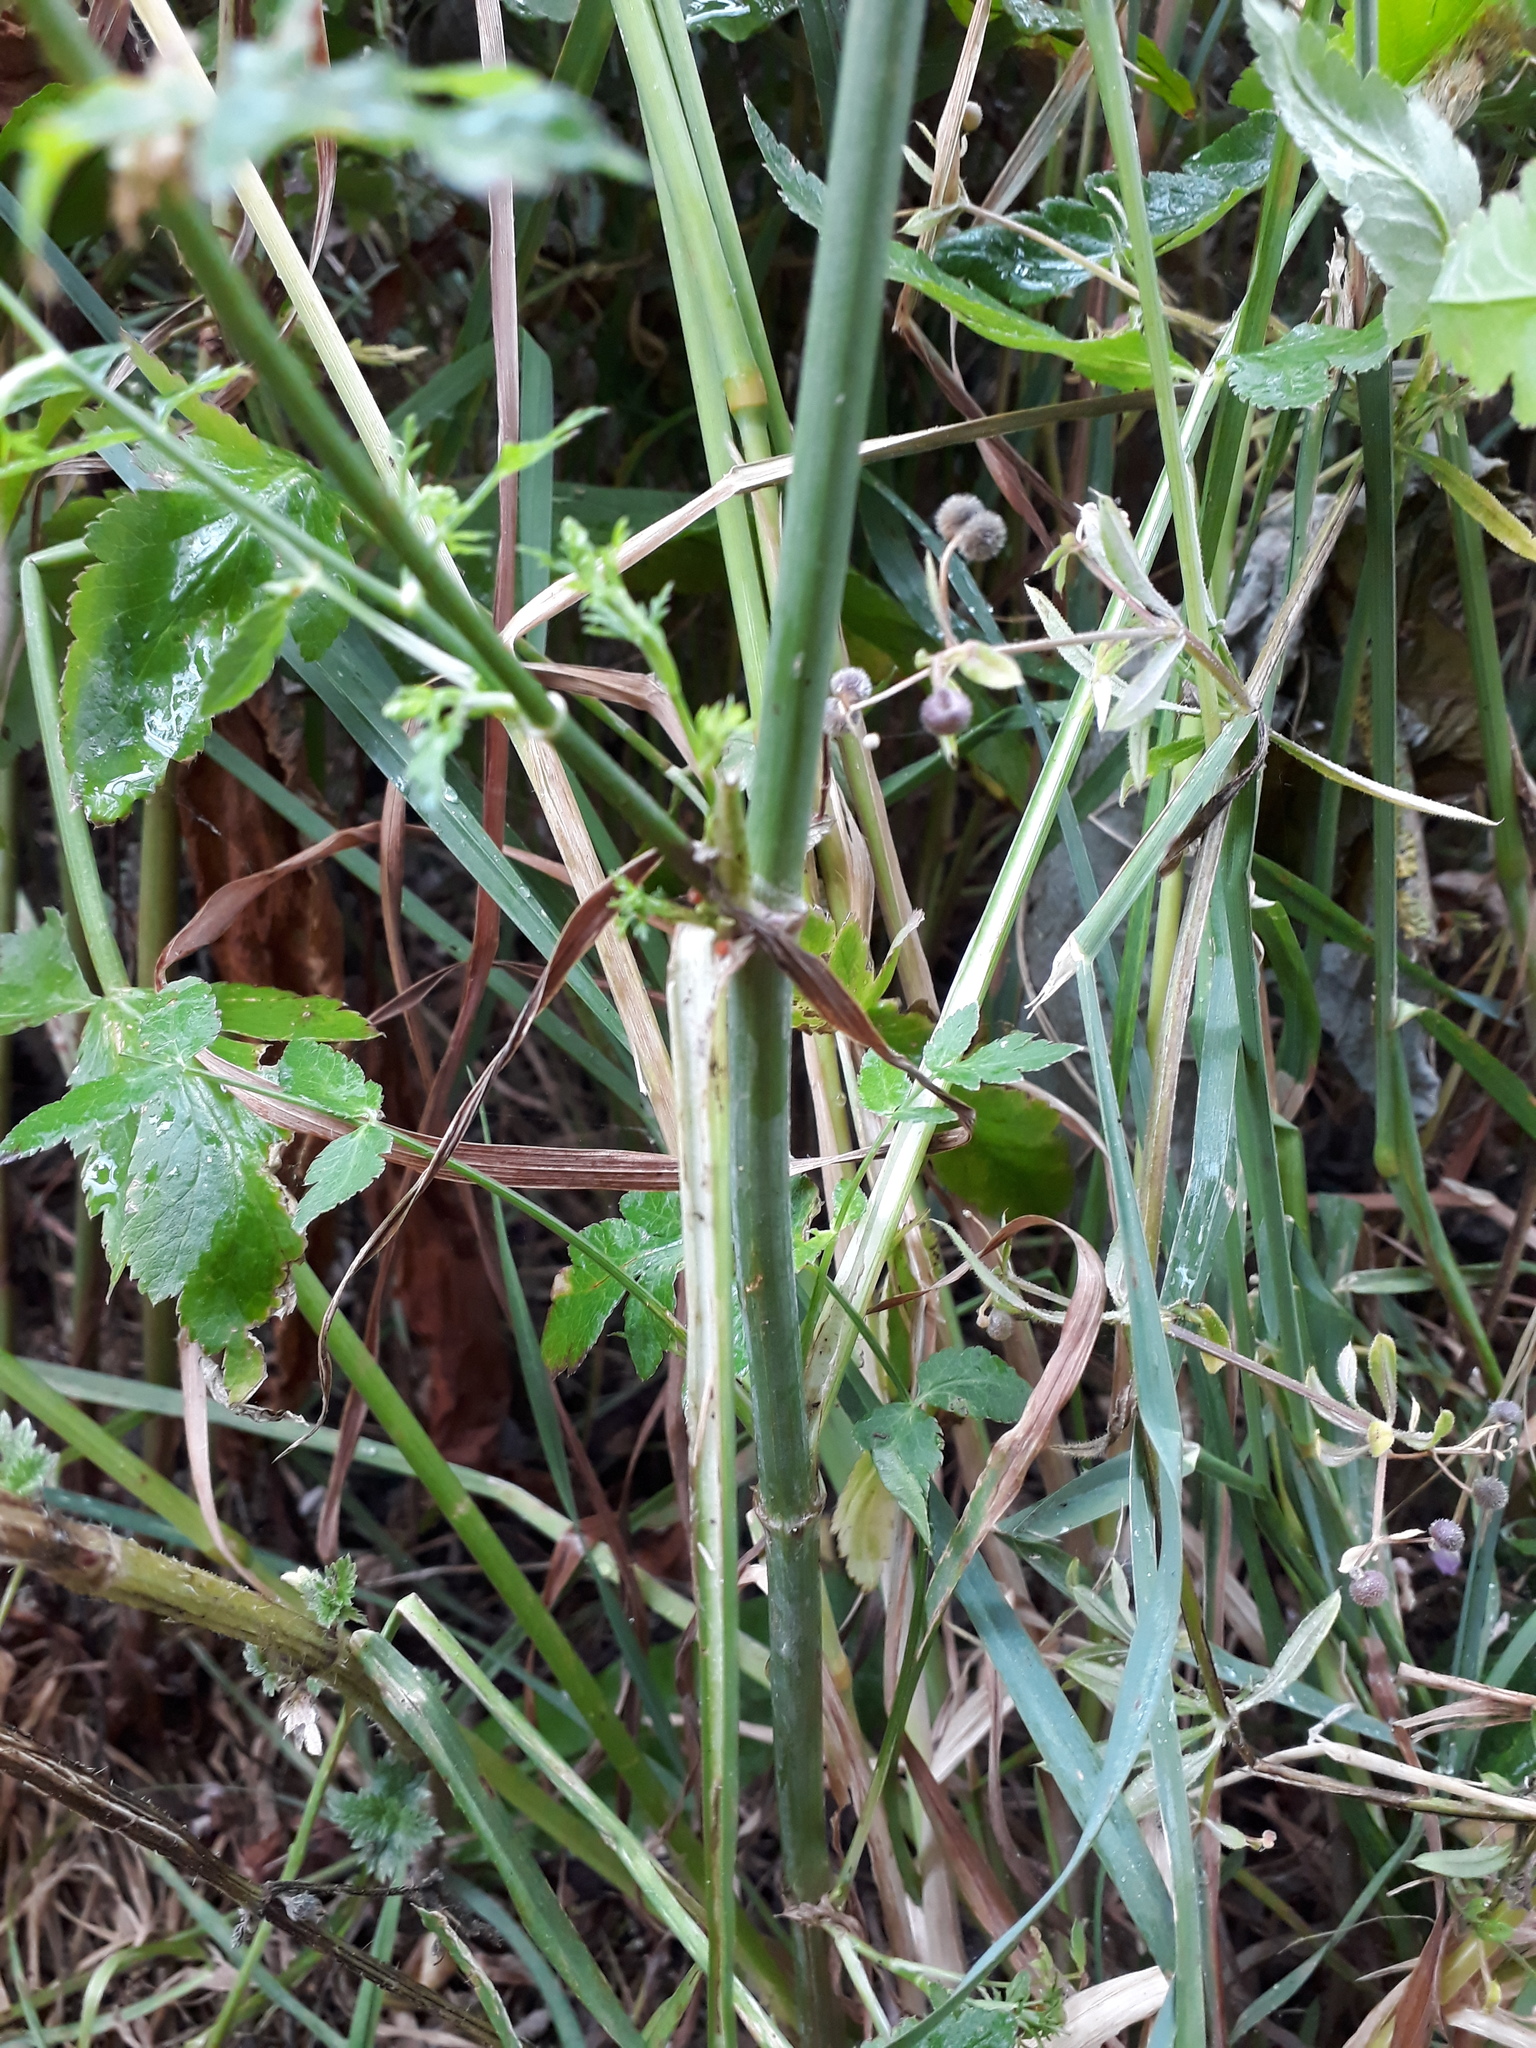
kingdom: Plantae
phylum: Tracheophyta
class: Magnoliopsida
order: Apiales
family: Apiaceae
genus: Sison
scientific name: Sison amomum
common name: Stone-parsley
